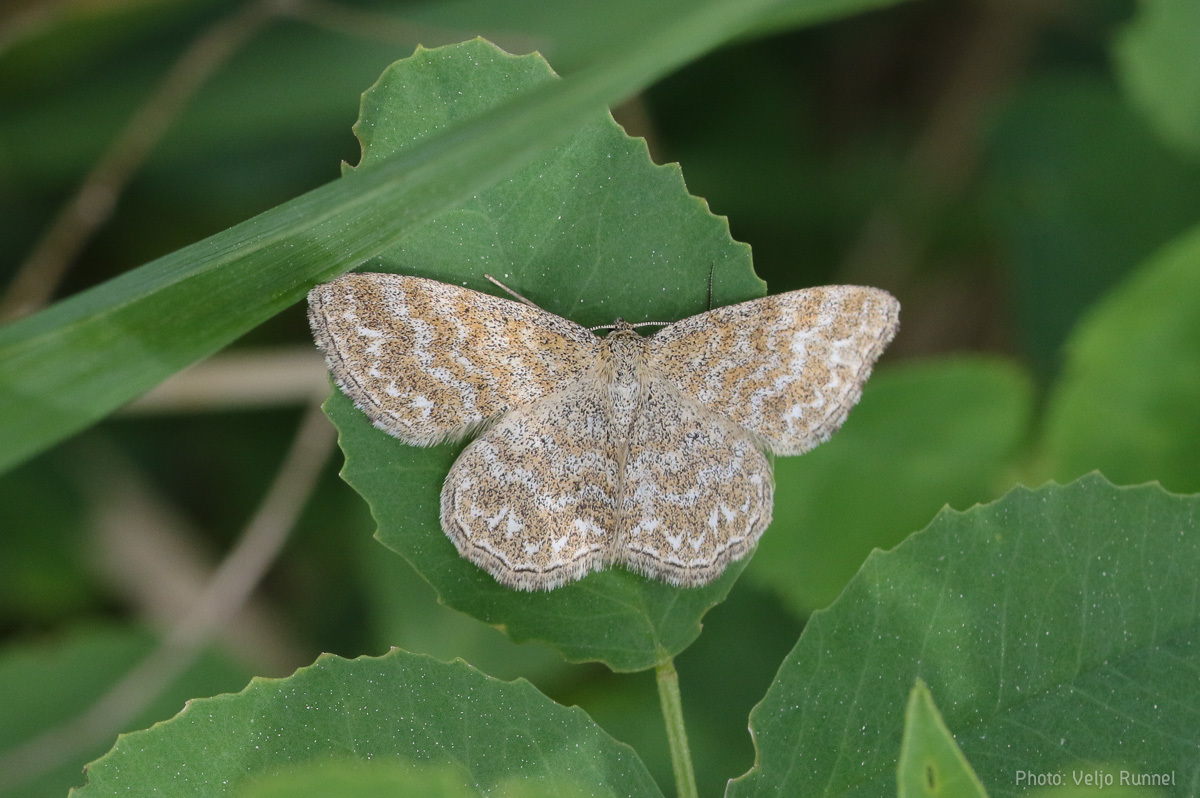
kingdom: Animalia
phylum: Arthropoda
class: Insecta
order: Lepidoptera
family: Geometridae
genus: Scopula
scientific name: Scopula immorata
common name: Lewes wave
